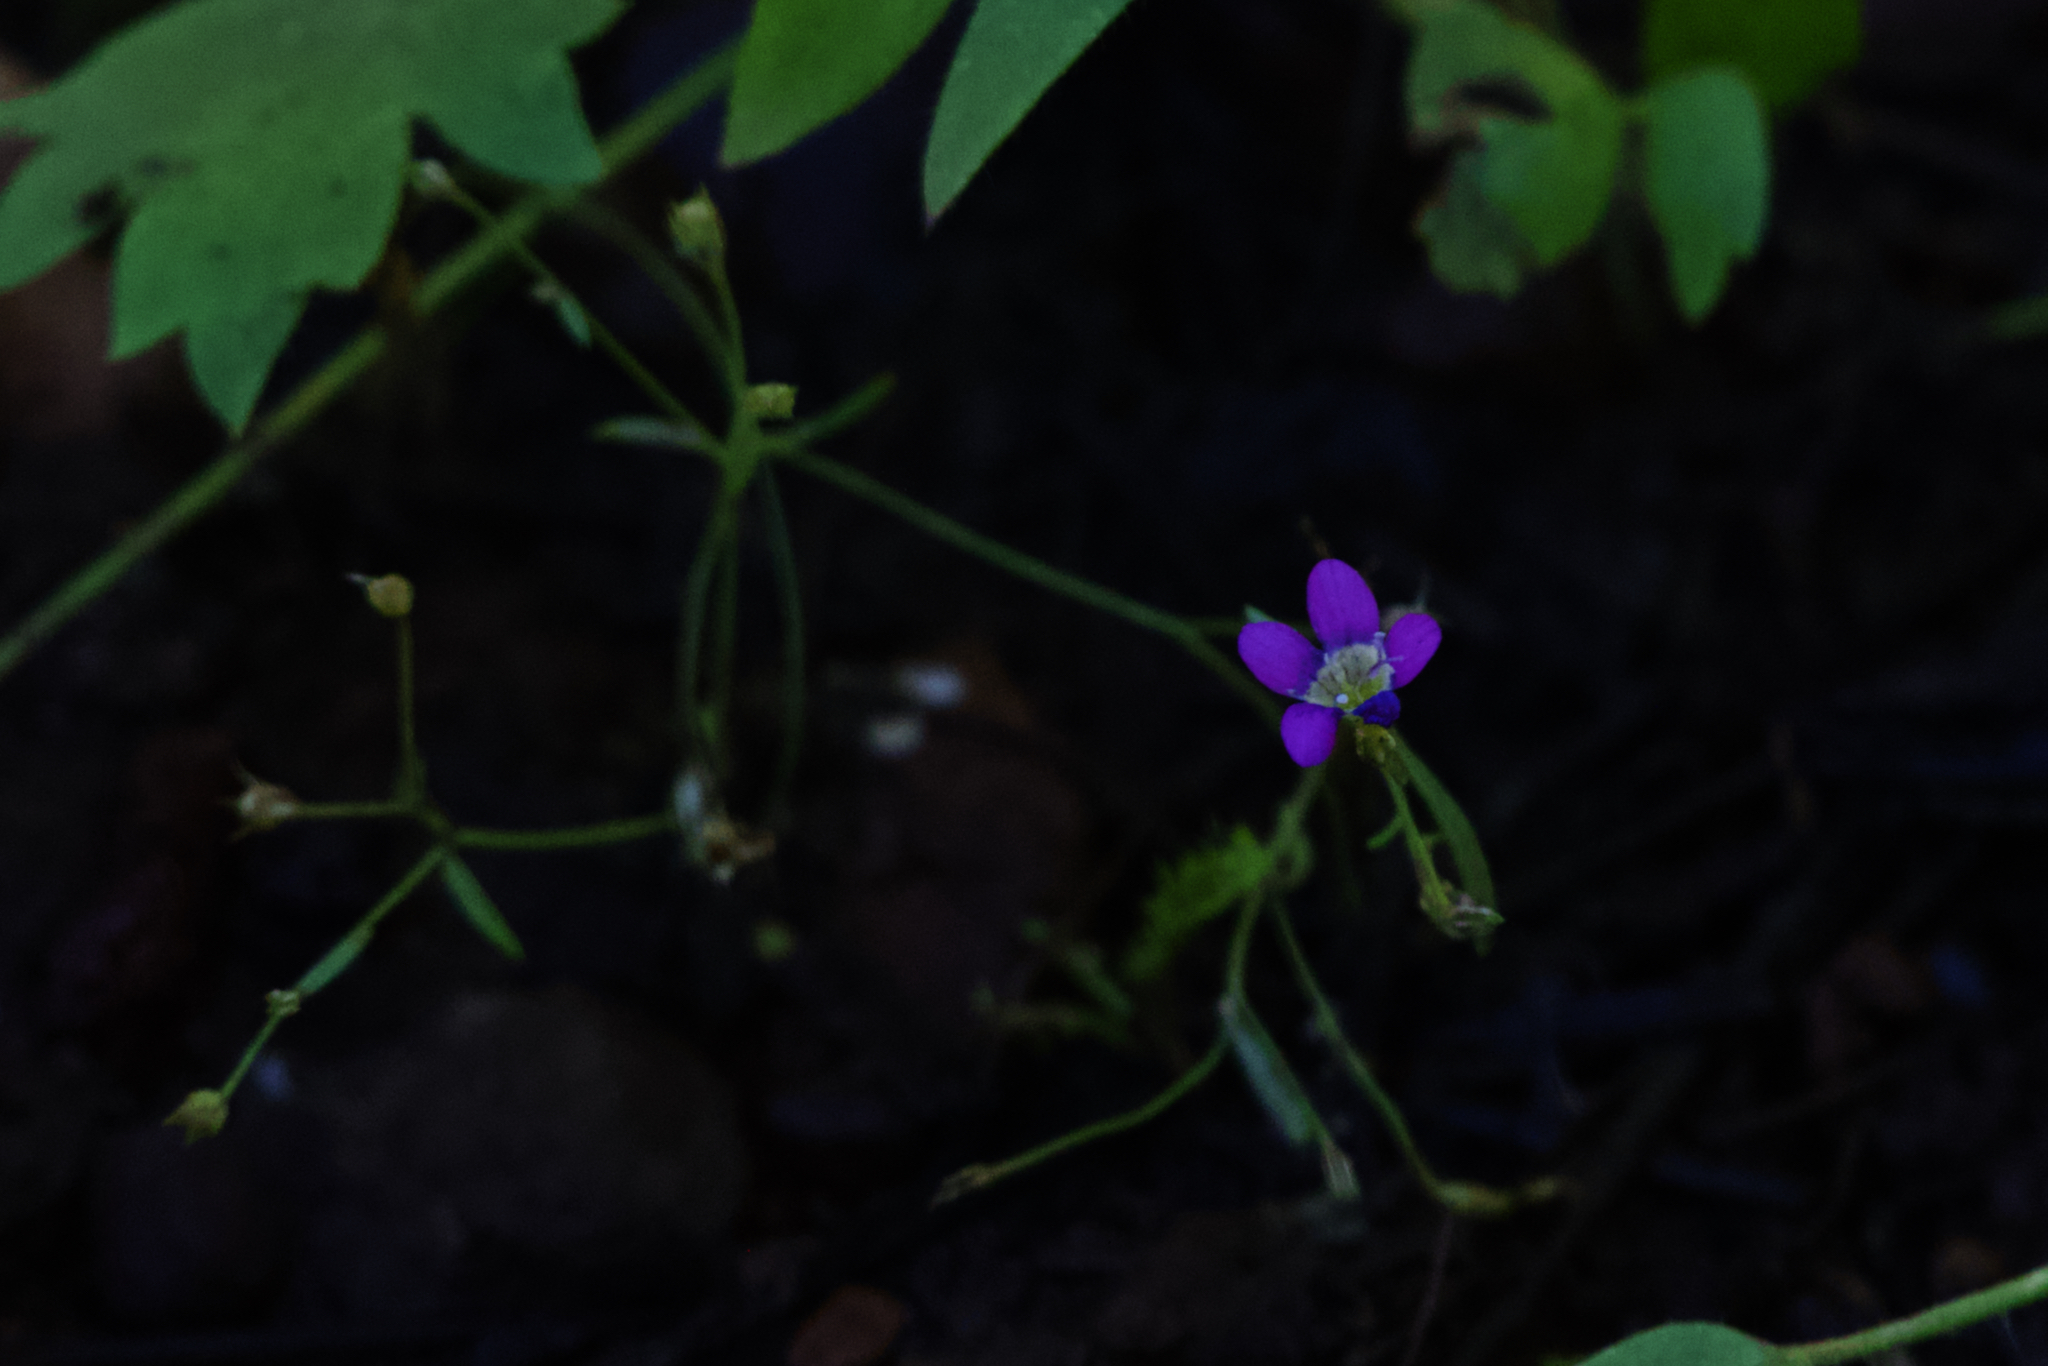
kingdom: Plantae
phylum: Tracheophyta
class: Magnoliopsida
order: Ericales
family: Polemoniaceae
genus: Navarretia
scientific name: Navarretia leptalea
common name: Bridges' pincushionplant
